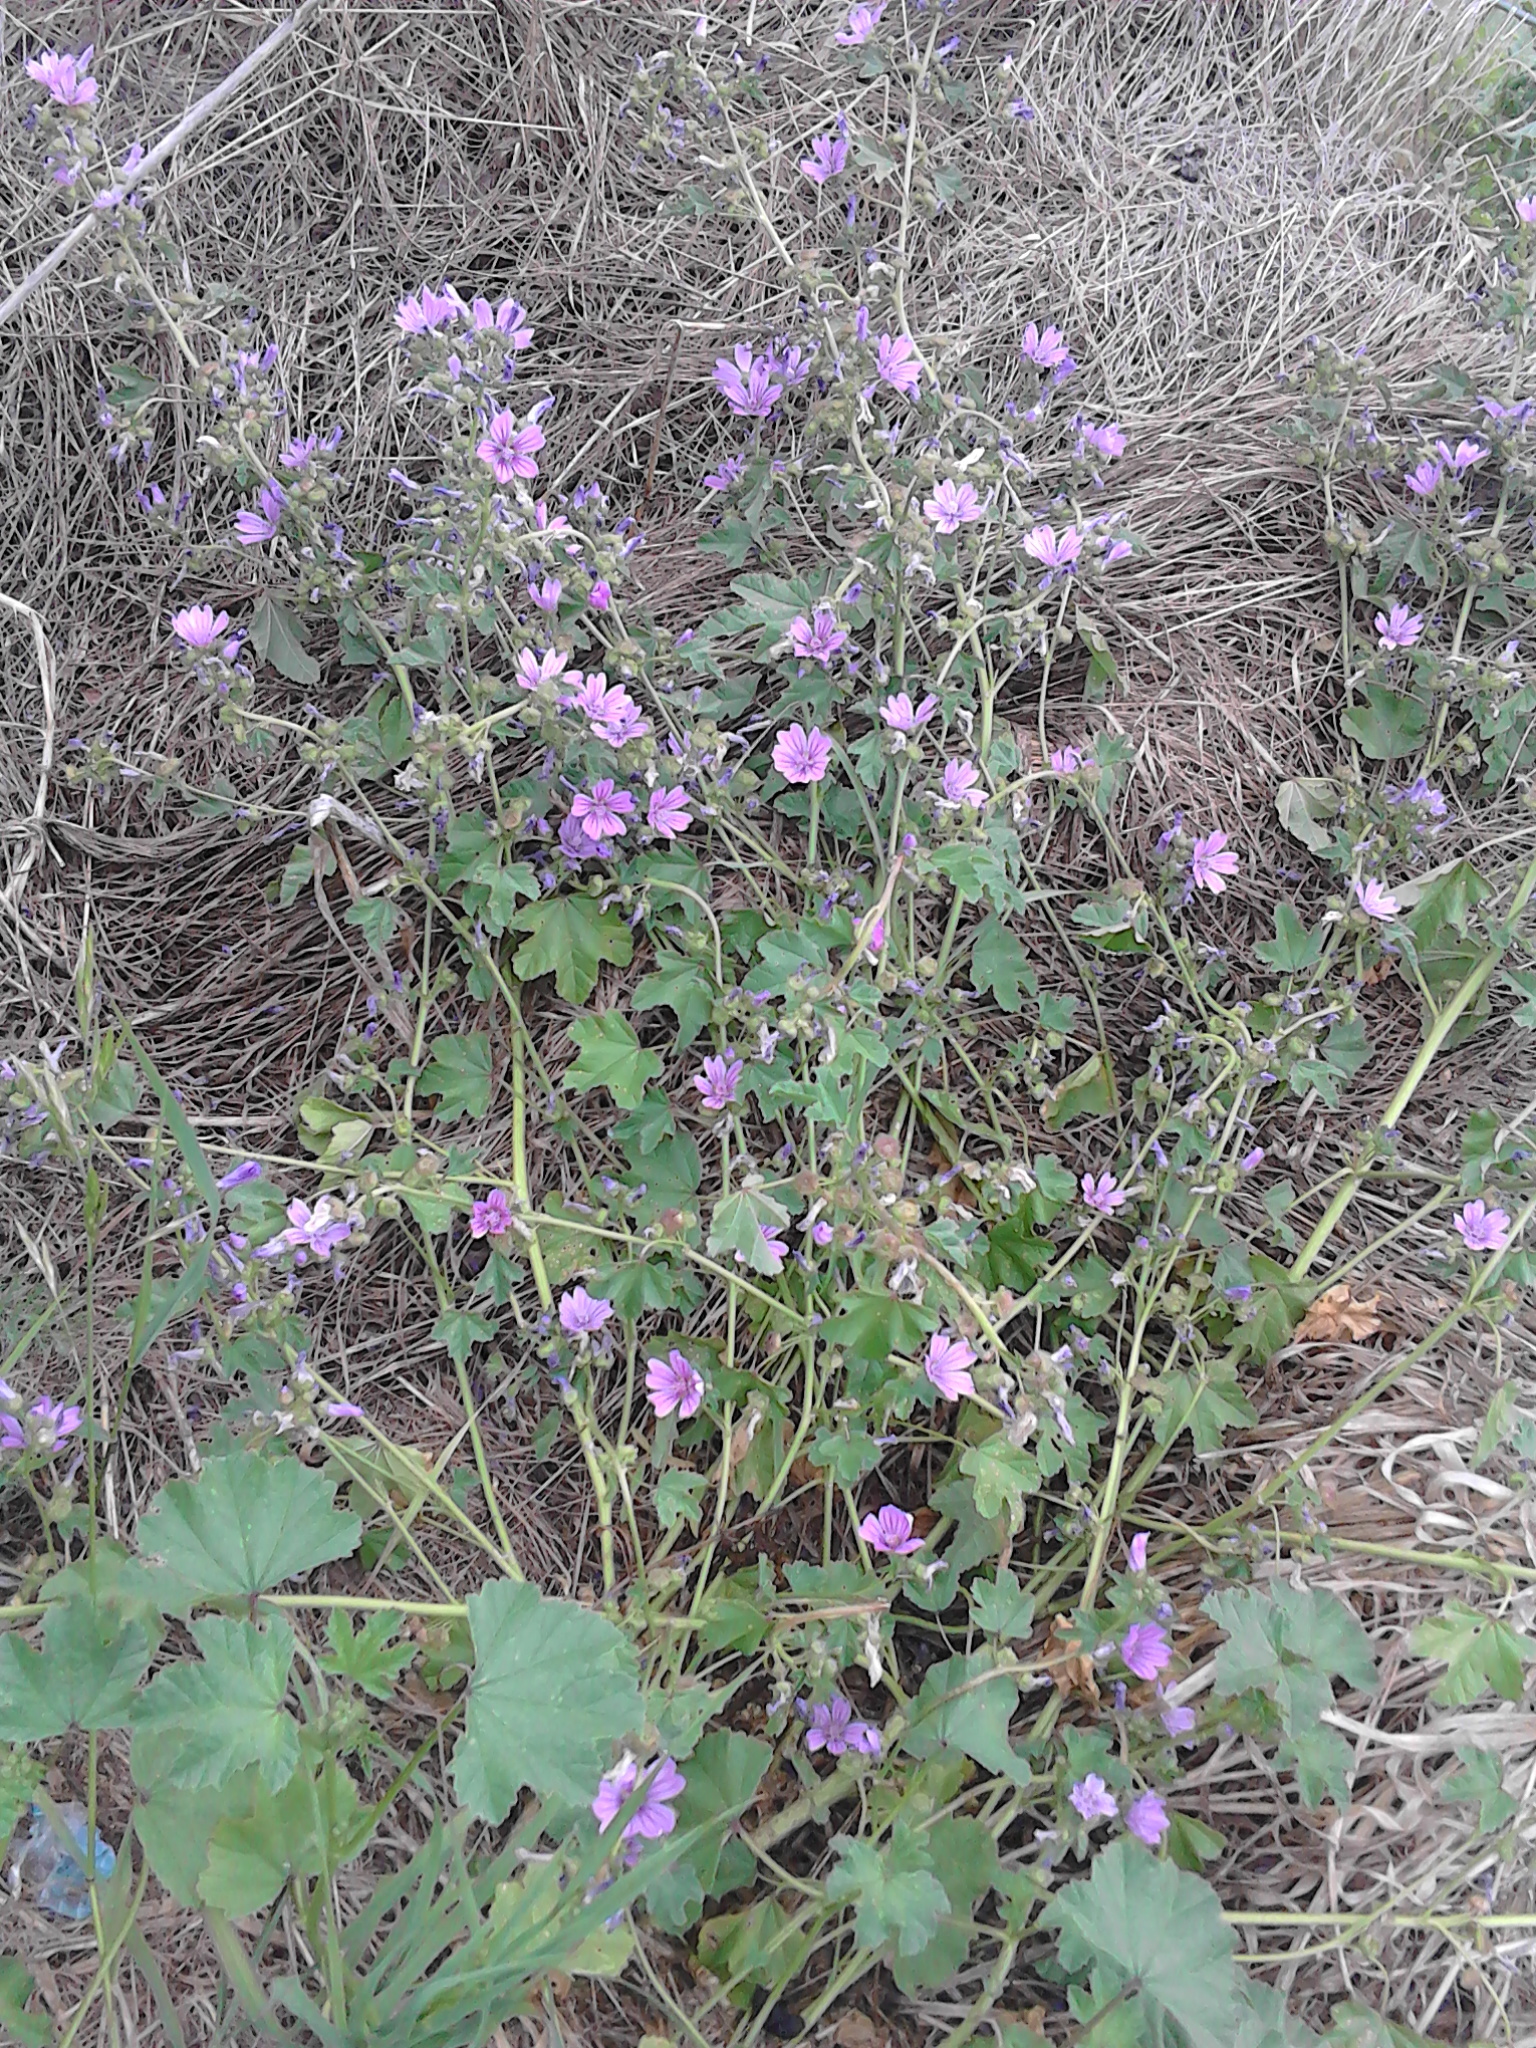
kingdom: Plantae
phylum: Tracheophyta
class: Magnoliopsida
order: Malvales
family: Malvaceae
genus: Malva
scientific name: Malva sylvestris
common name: Common mallow
